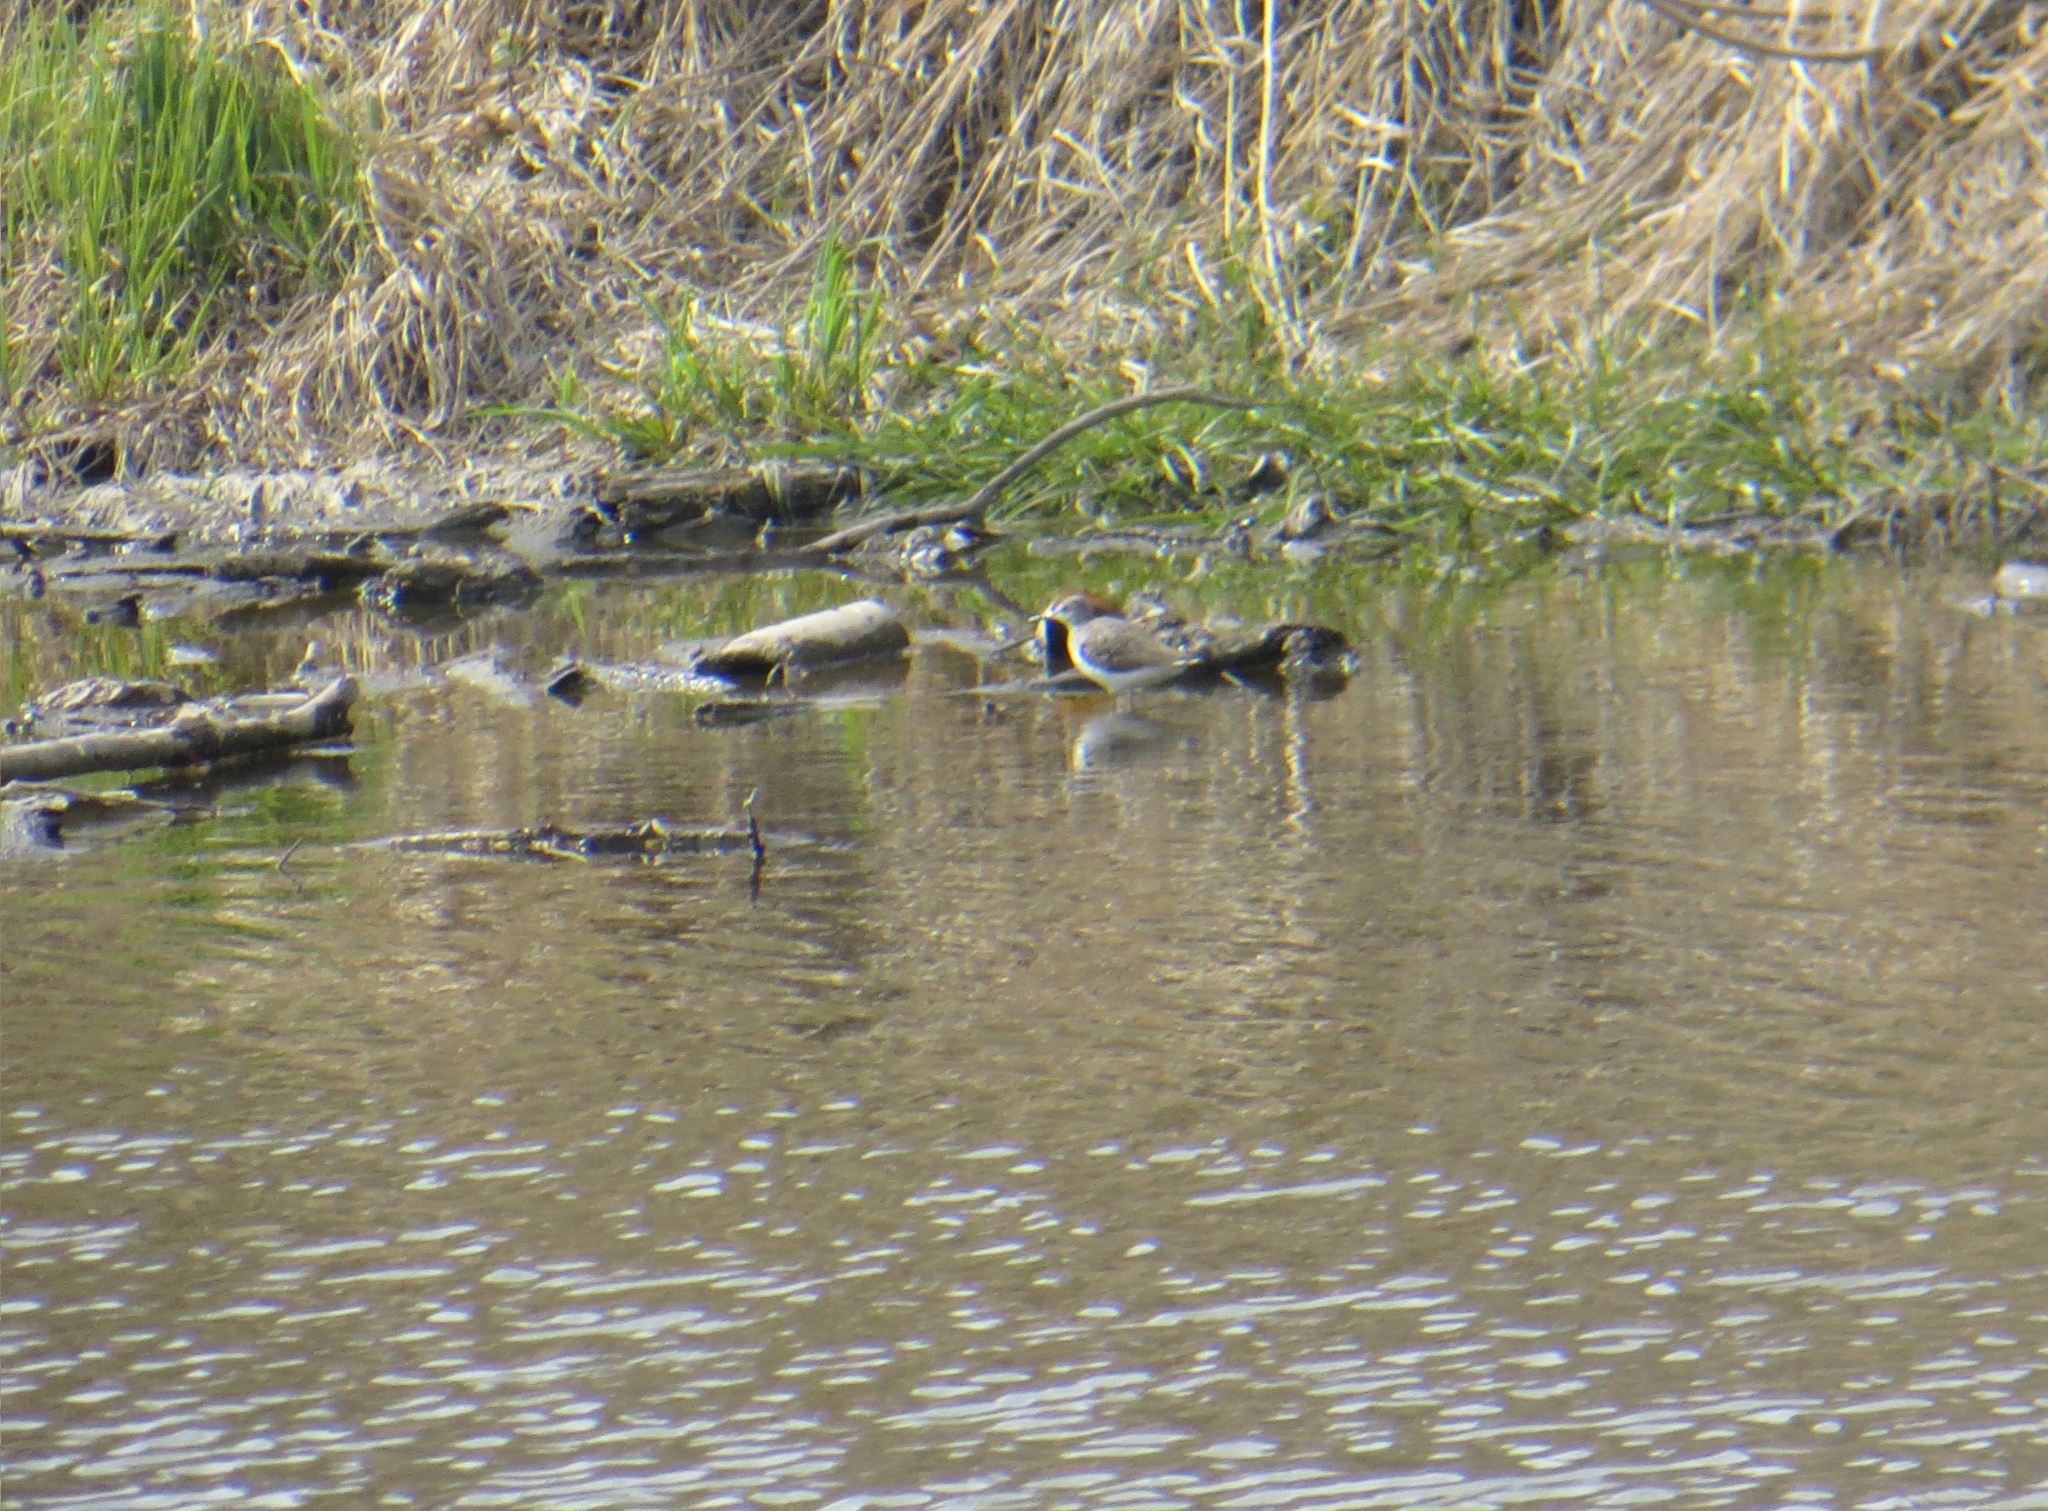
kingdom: Animalia
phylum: Chordata
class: Aves
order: Charadriiformes
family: Scolopacidae
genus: Tringa
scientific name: Tringa ochropus
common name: Green sandpiper
